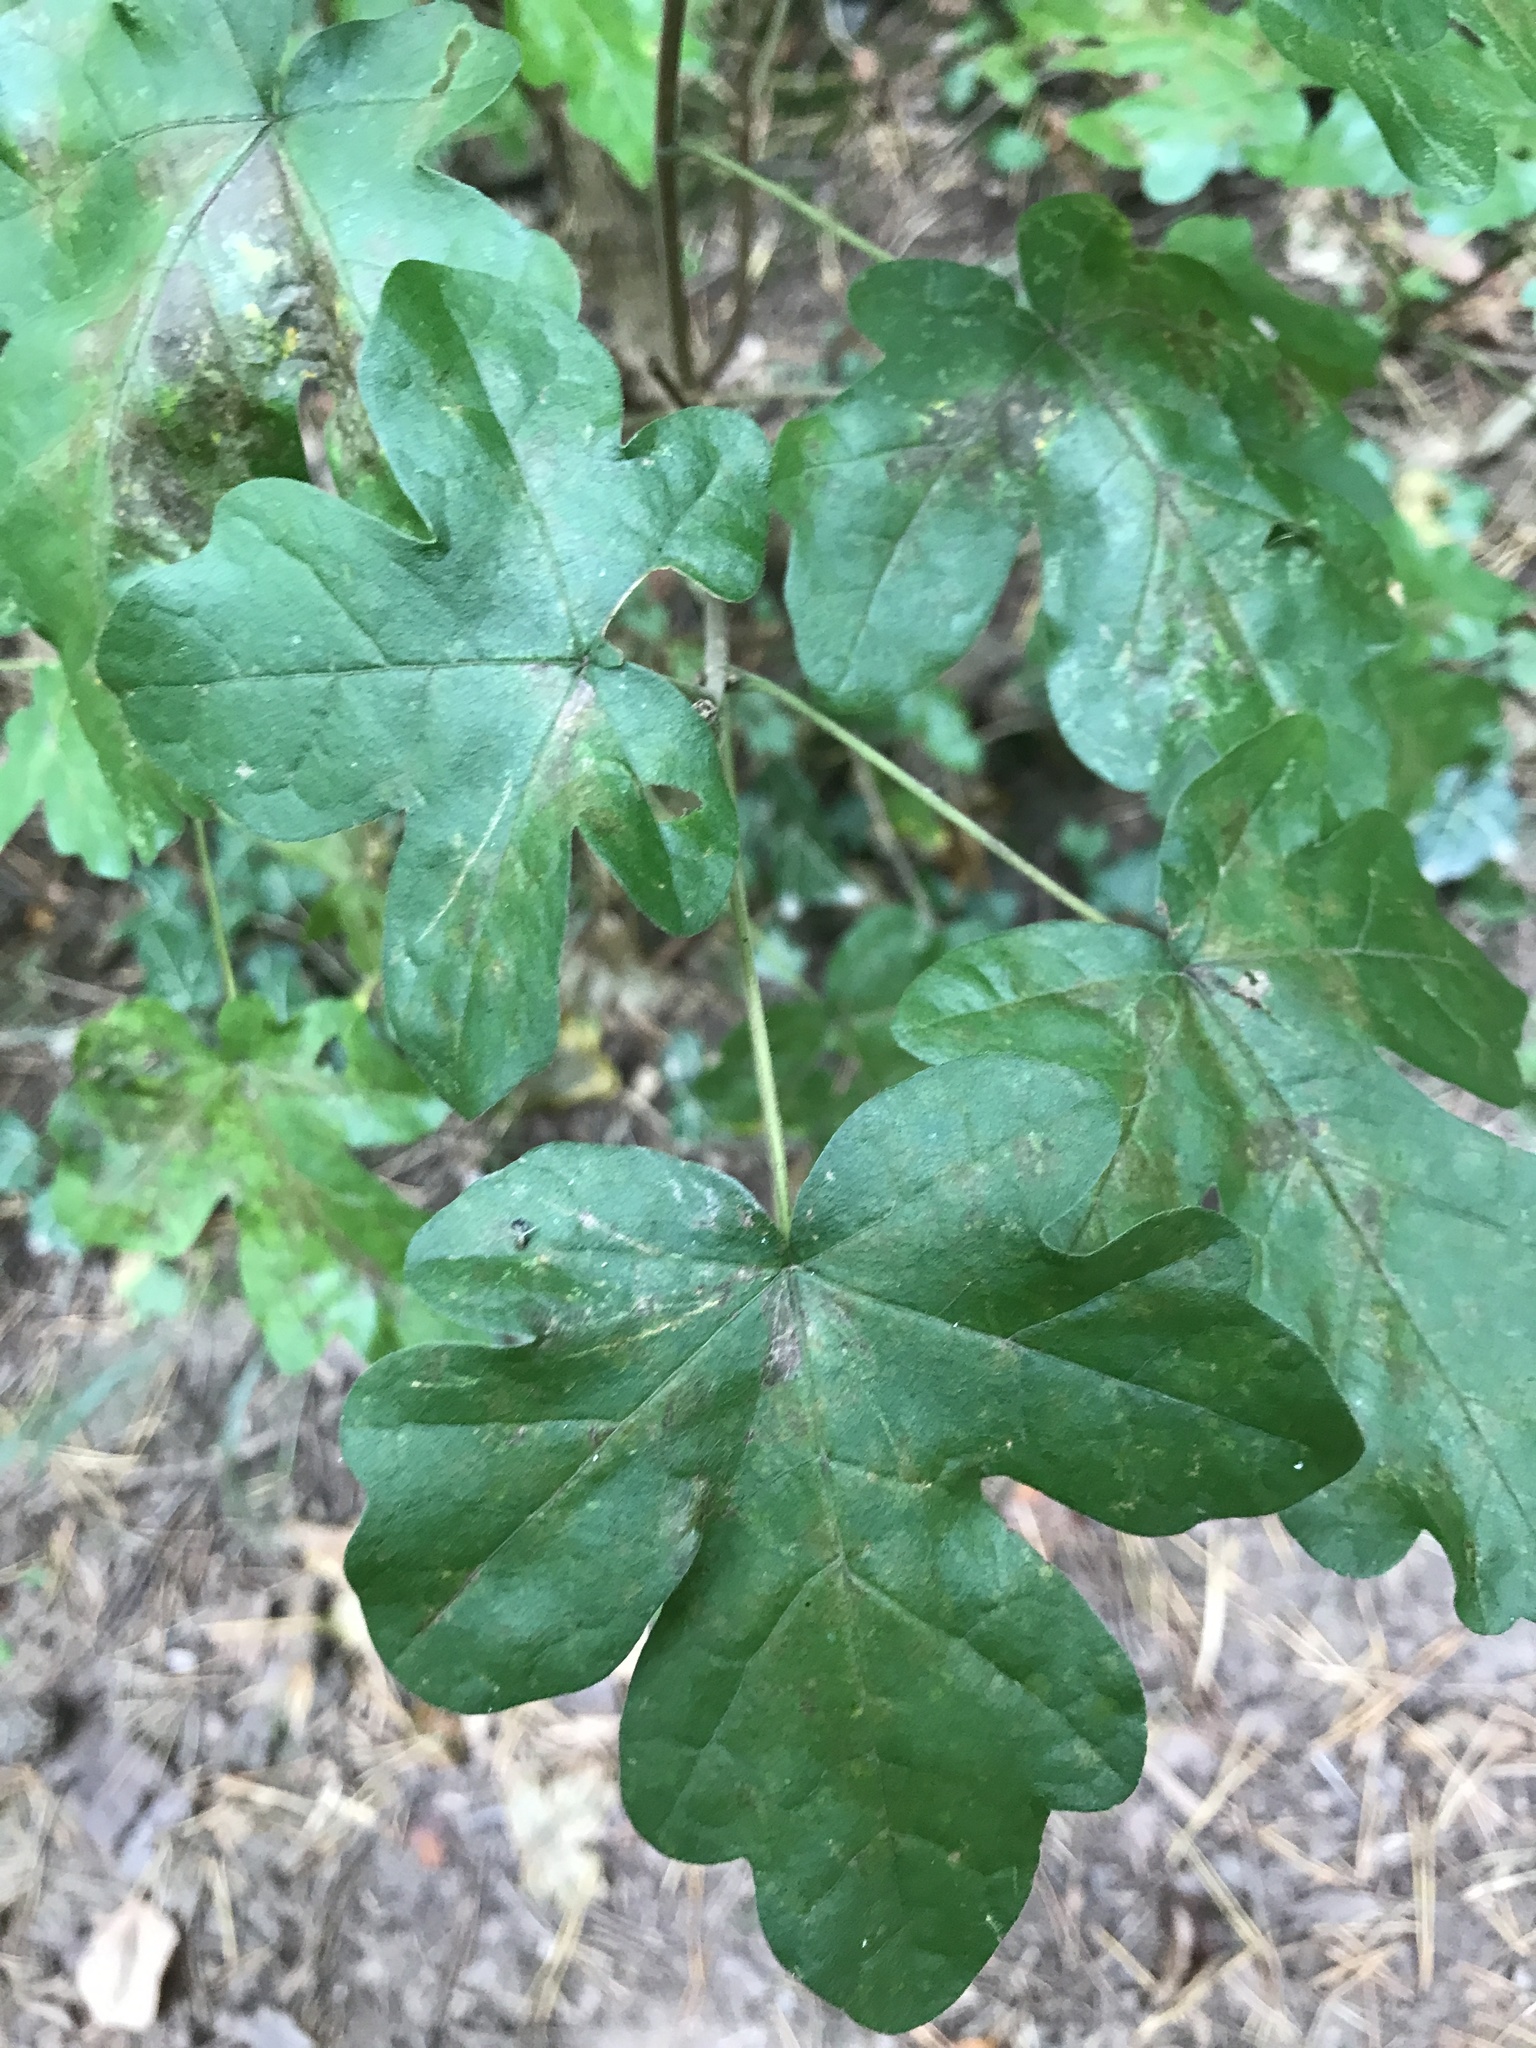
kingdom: Plantae
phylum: Tracheophyta
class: Magnoliopsida
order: Sapindales
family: Sapindaceae
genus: Acer
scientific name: Acer campestre
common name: Field maple
